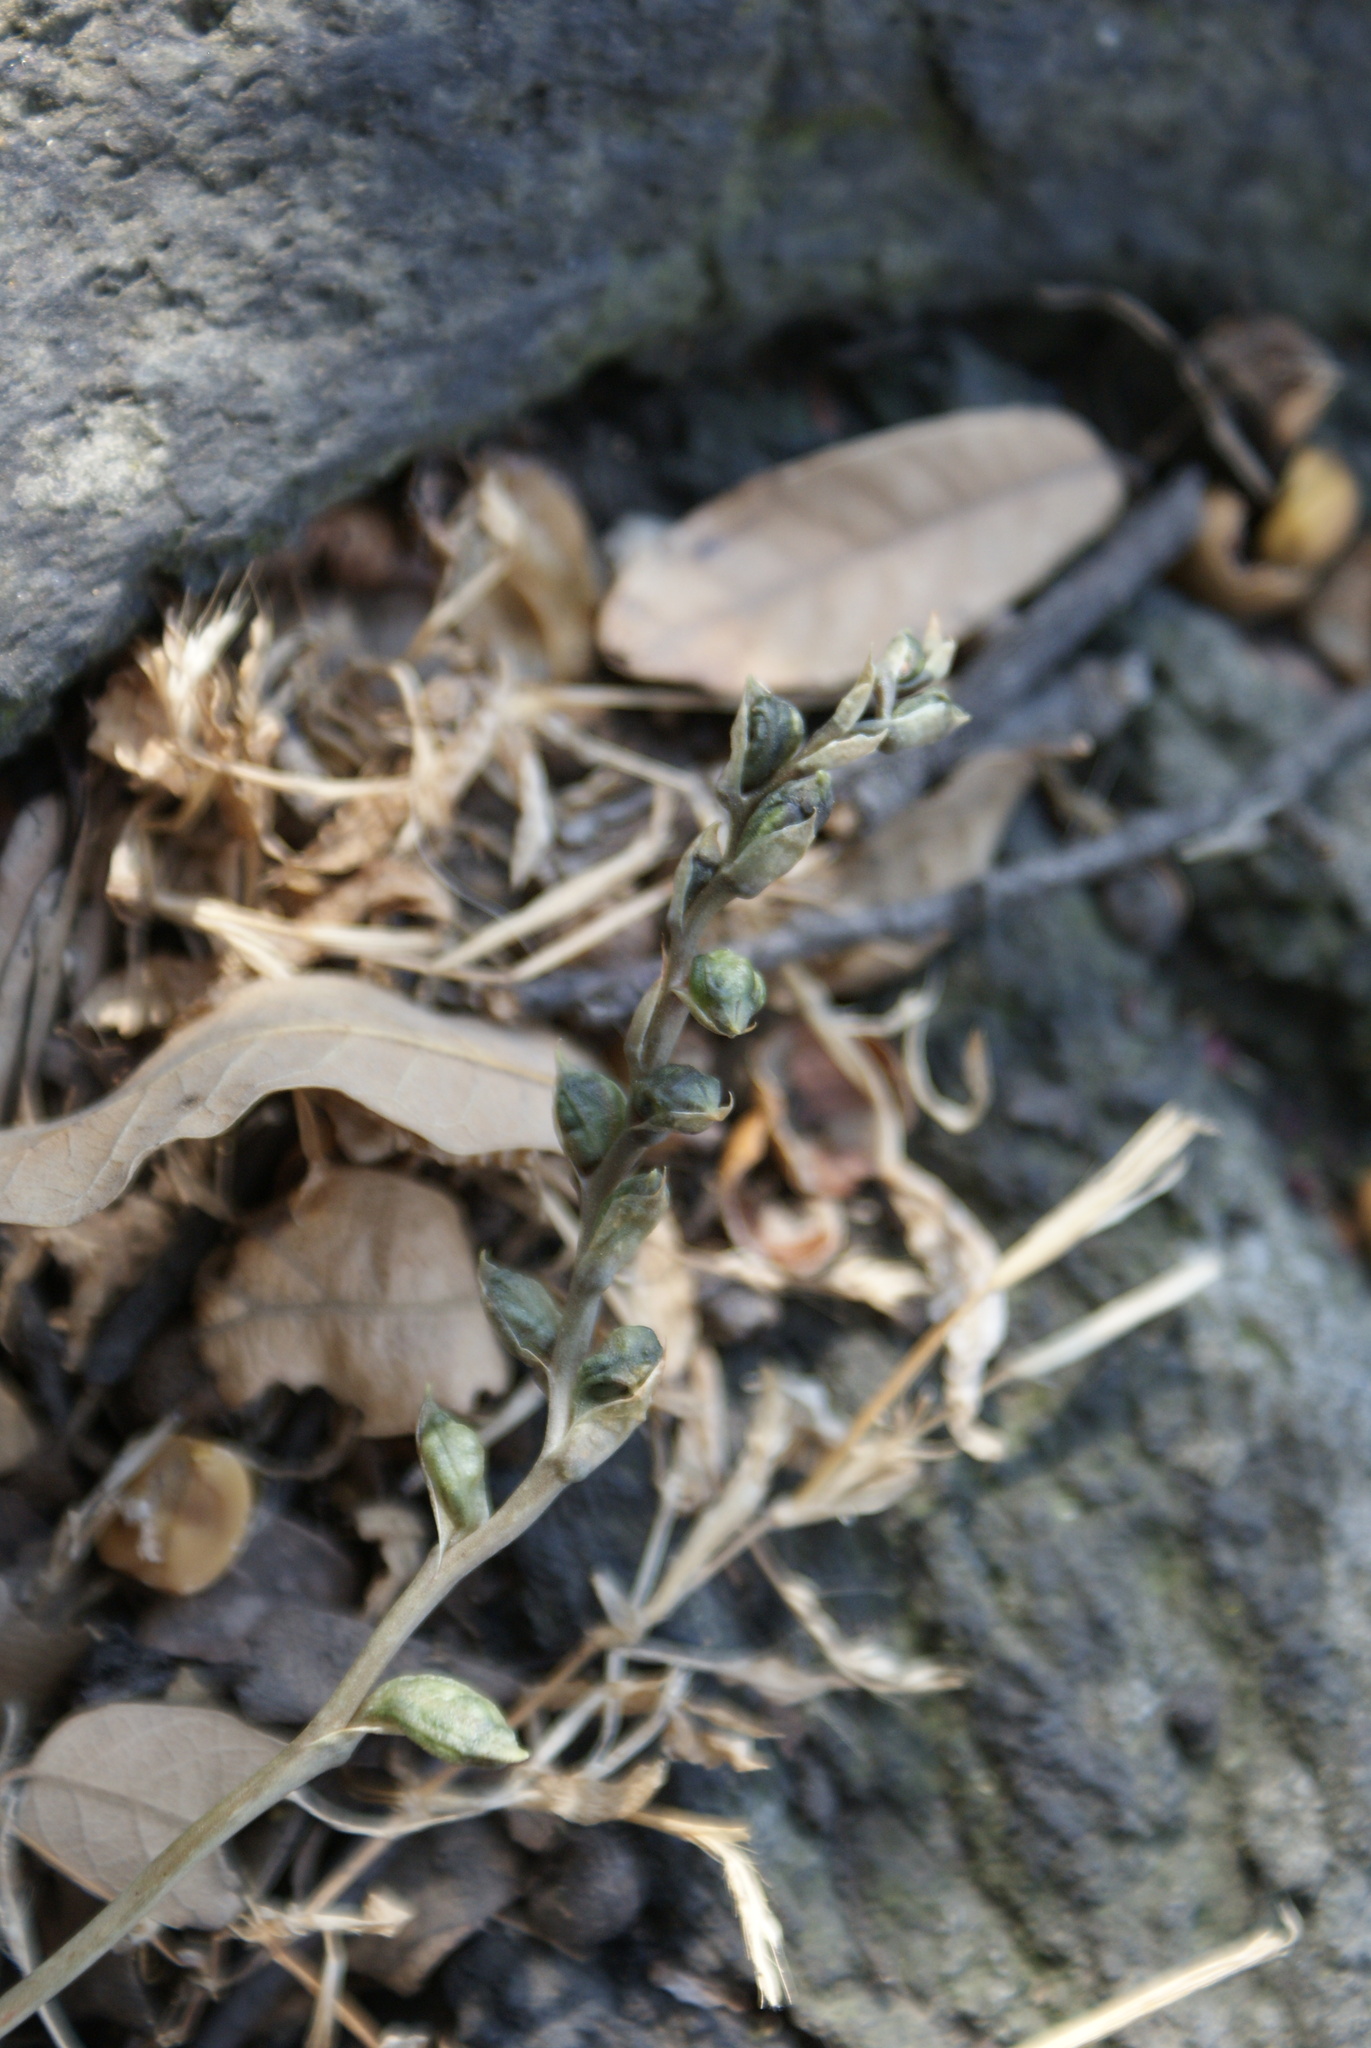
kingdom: Plantae
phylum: Tracheophyta
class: Liliopsida
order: Asparagales
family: Orchidaceae
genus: Microthelys
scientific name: Microthelys minutiflora
